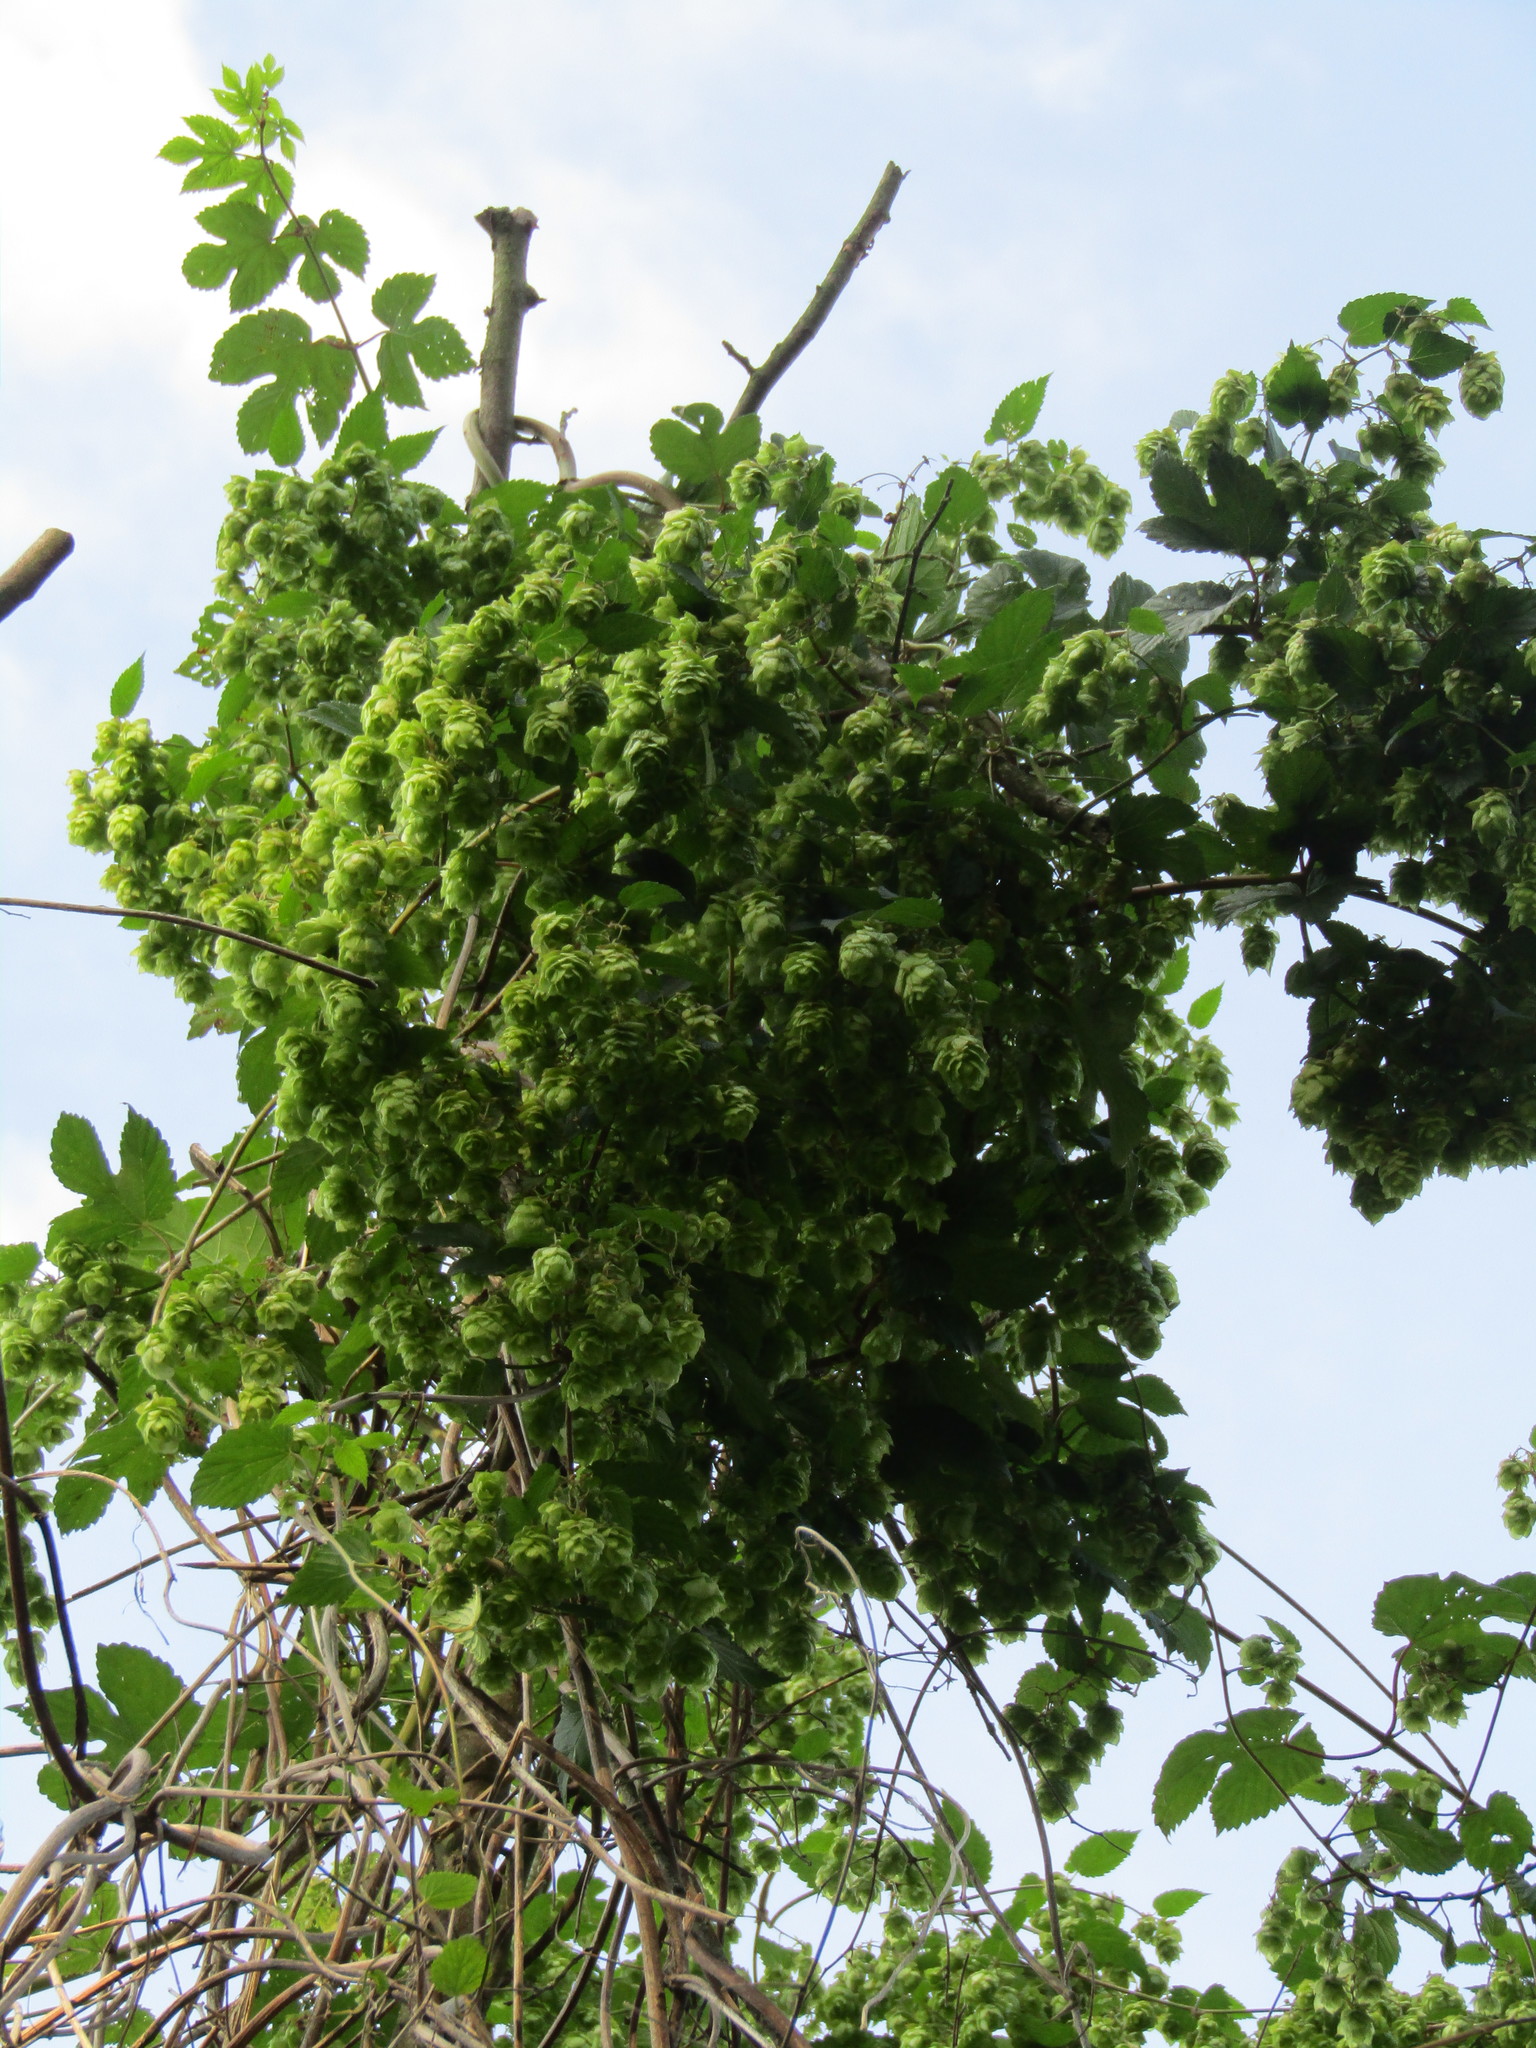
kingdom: Plantae
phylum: Tracheophyta
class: Magnoliopsida
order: Rosales
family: Cannabaceae
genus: Humulus
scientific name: Humulus lupulus
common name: Hop
